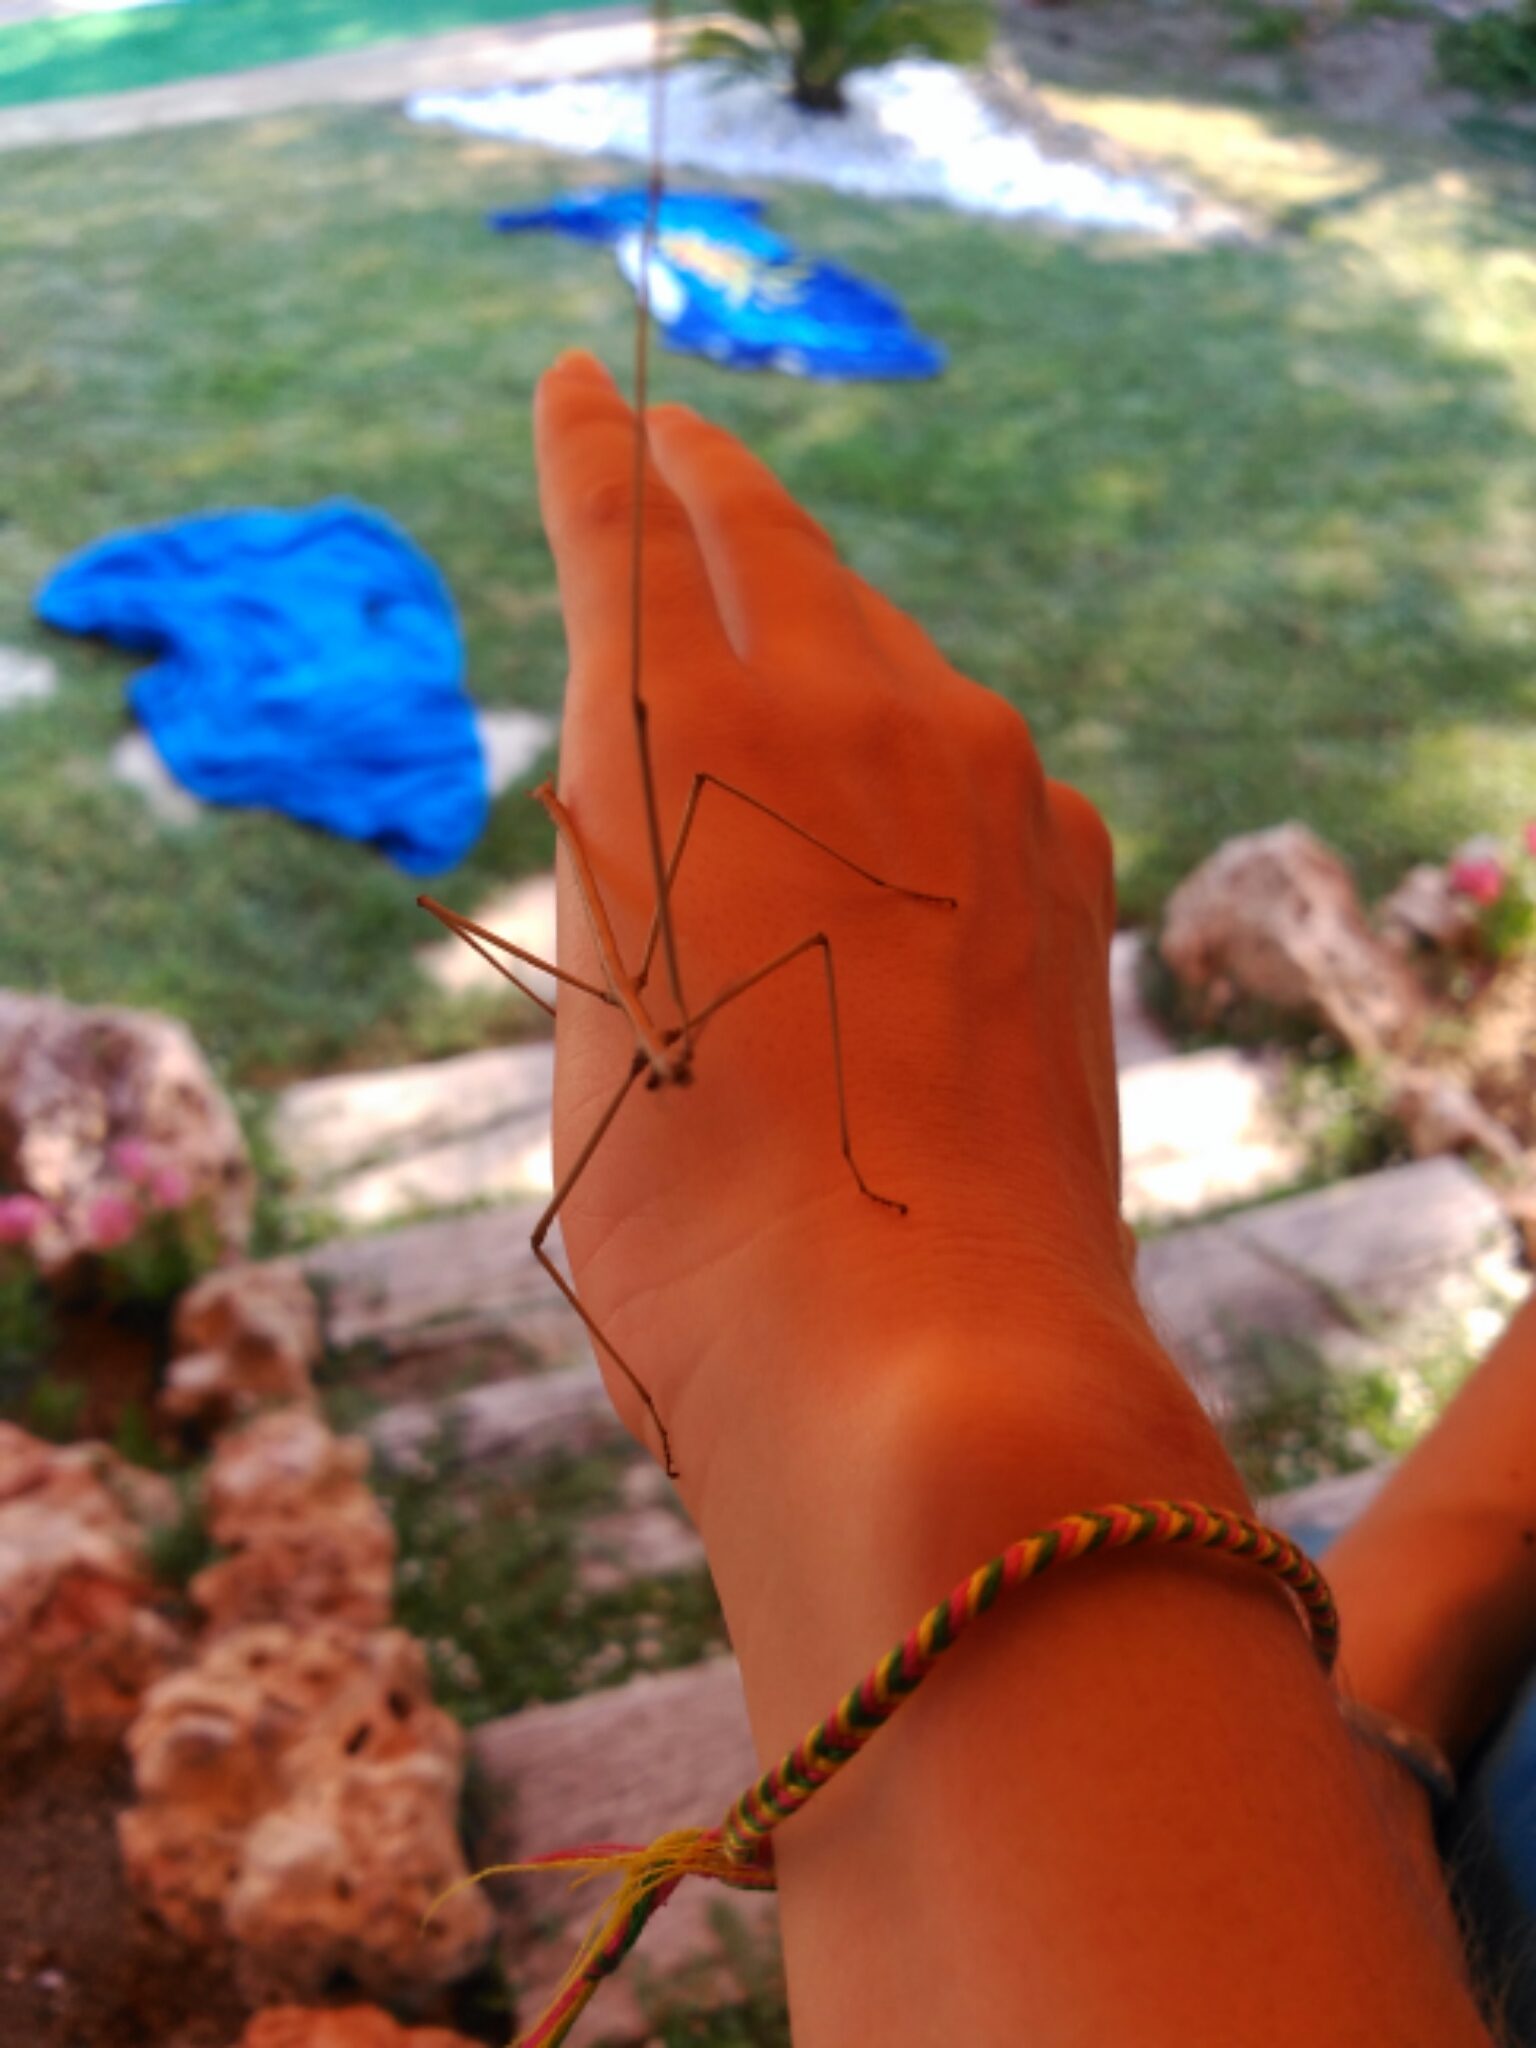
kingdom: Animalia
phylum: Arthropoda
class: Insecta
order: Phasmida
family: Bacillidae
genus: Bacillus
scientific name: Bacillus rossius
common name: Corsican stick-insect
